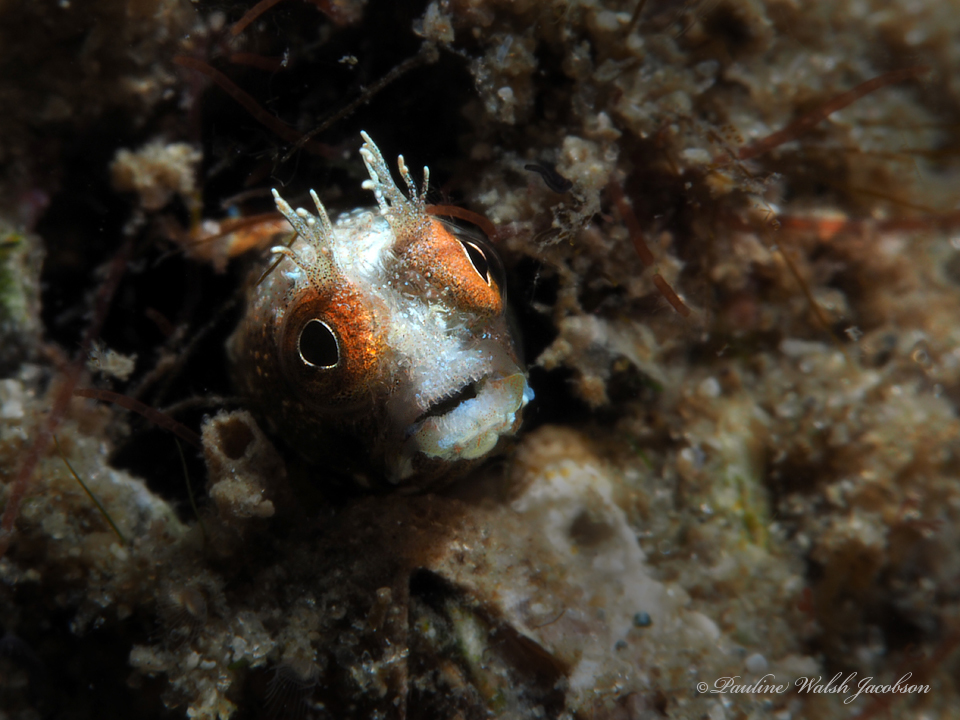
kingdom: Animalia
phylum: Chordata
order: Perciformes
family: Chaenopsidae
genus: Acanthemblemaria
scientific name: Acanthemblemaria aspera
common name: Roughhead blenny
